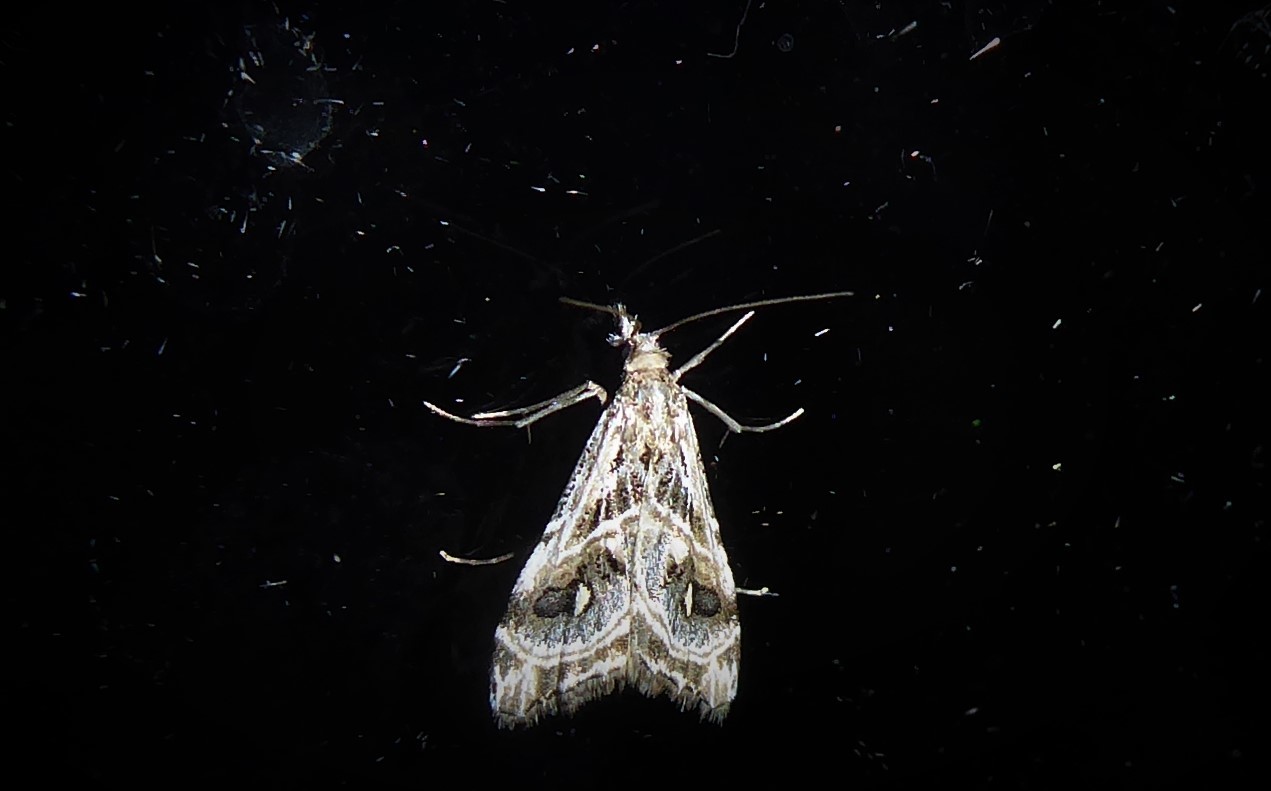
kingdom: Animalia
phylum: Arthropoda
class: Insecta
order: Lepidoptera
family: Crambidae
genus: Gadira
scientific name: Gadira acerella
